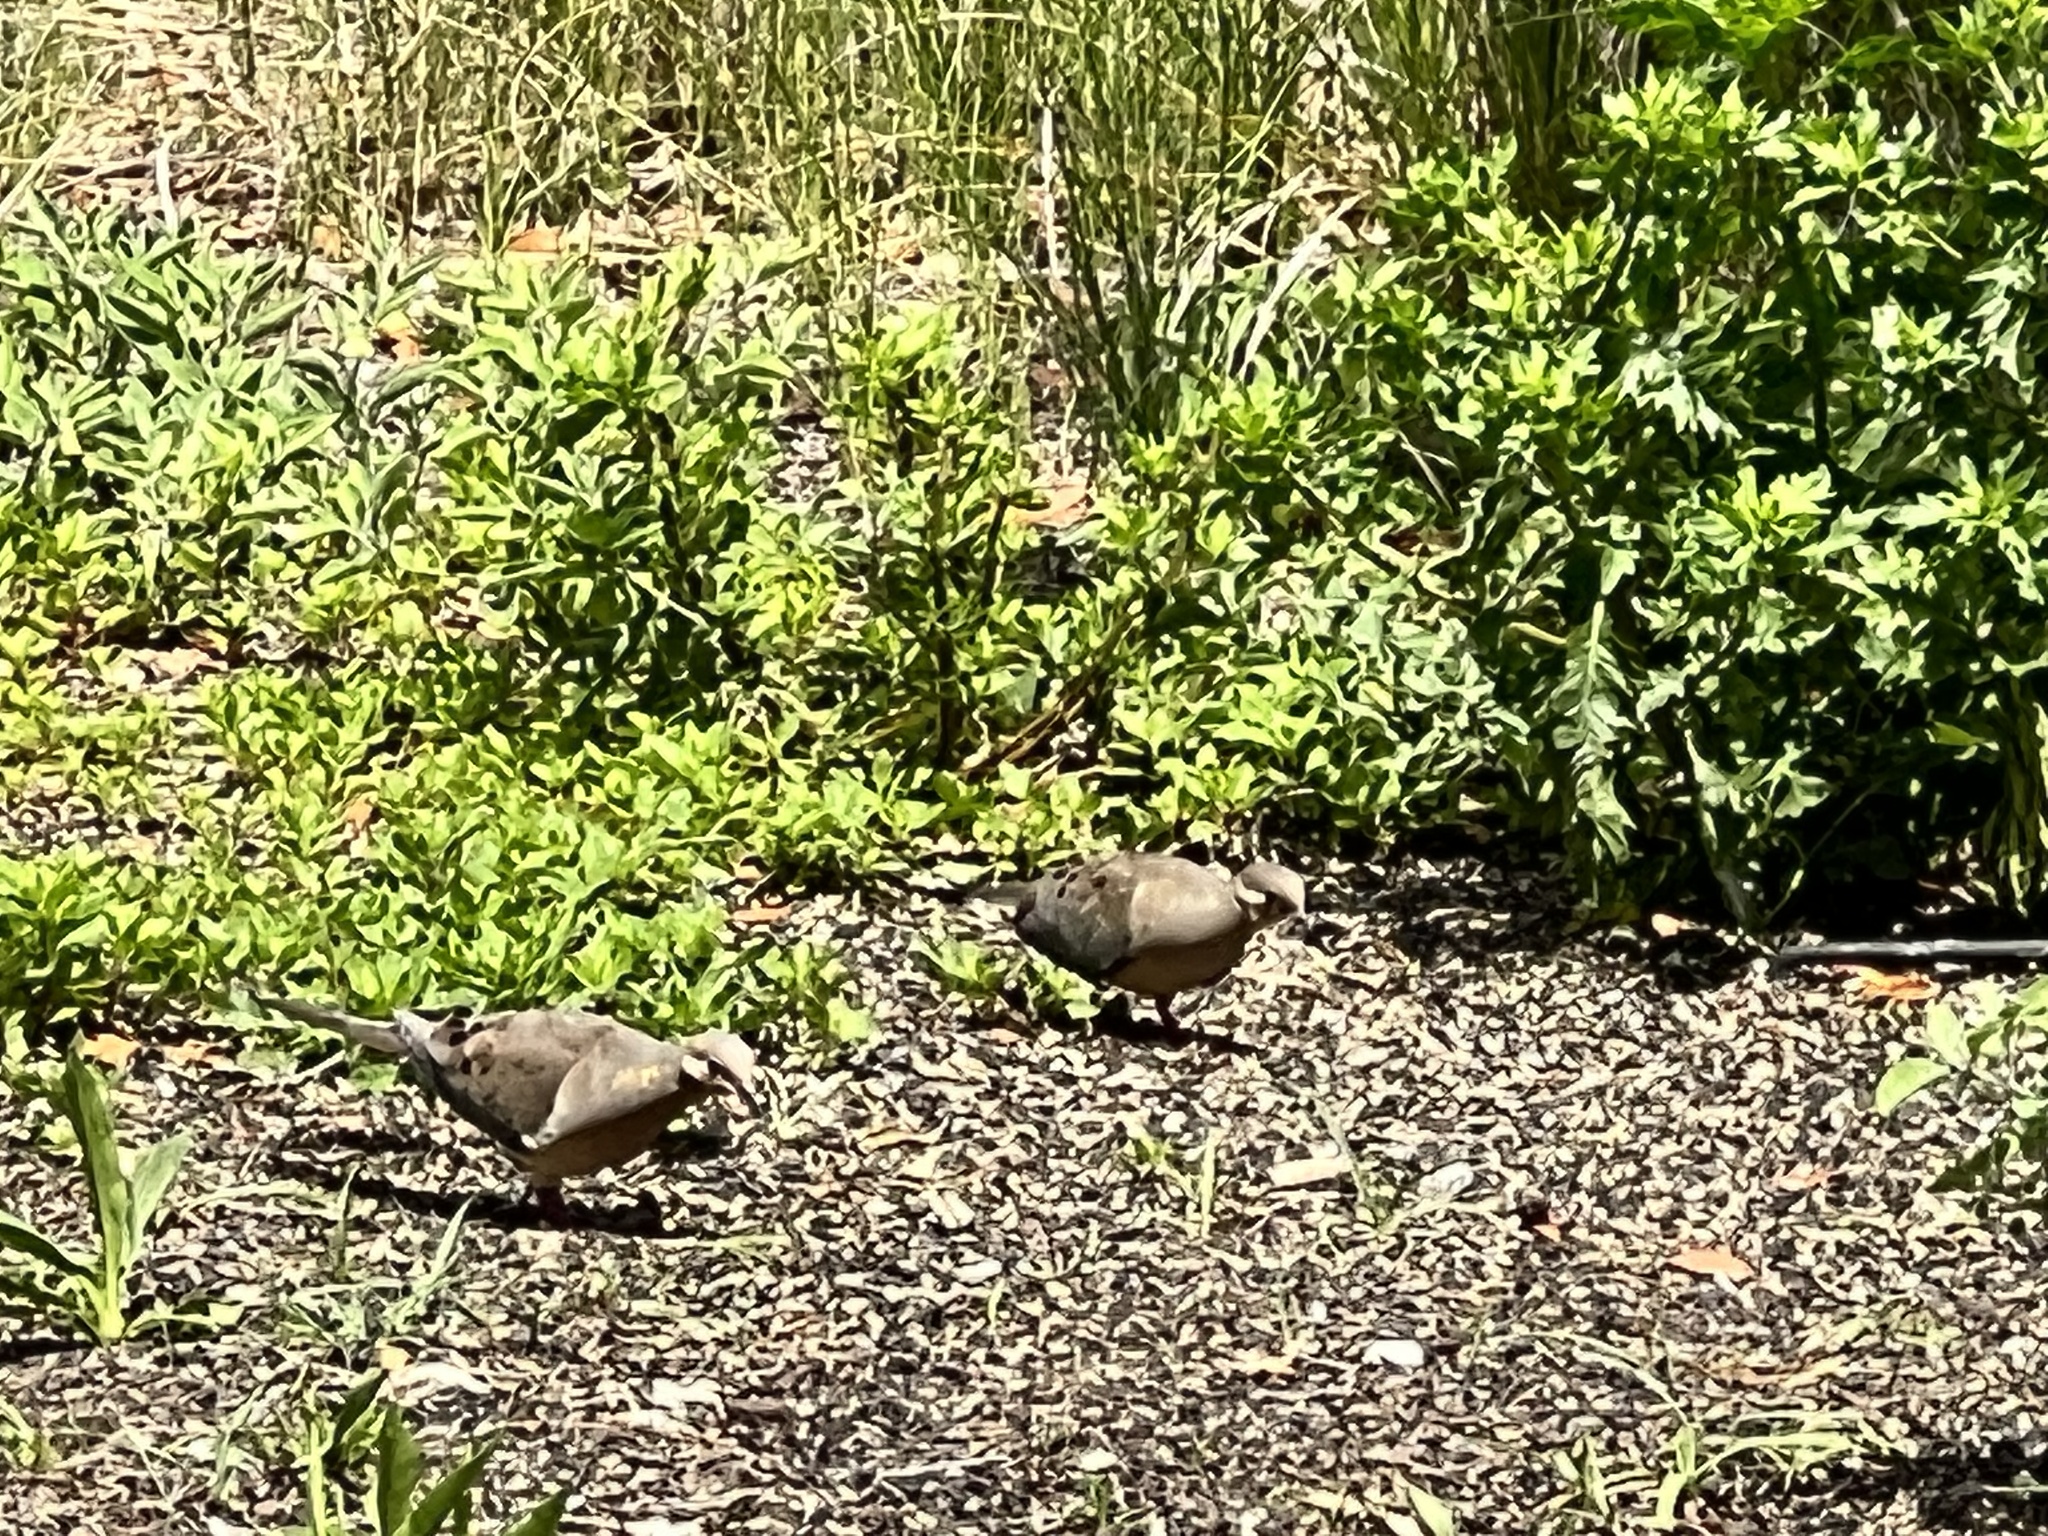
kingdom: Animalia
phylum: Chordata
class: Aves
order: Columbiformes
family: Columbidae
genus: Zenaida
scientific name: Zenaida macroura
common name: Mourning dove
